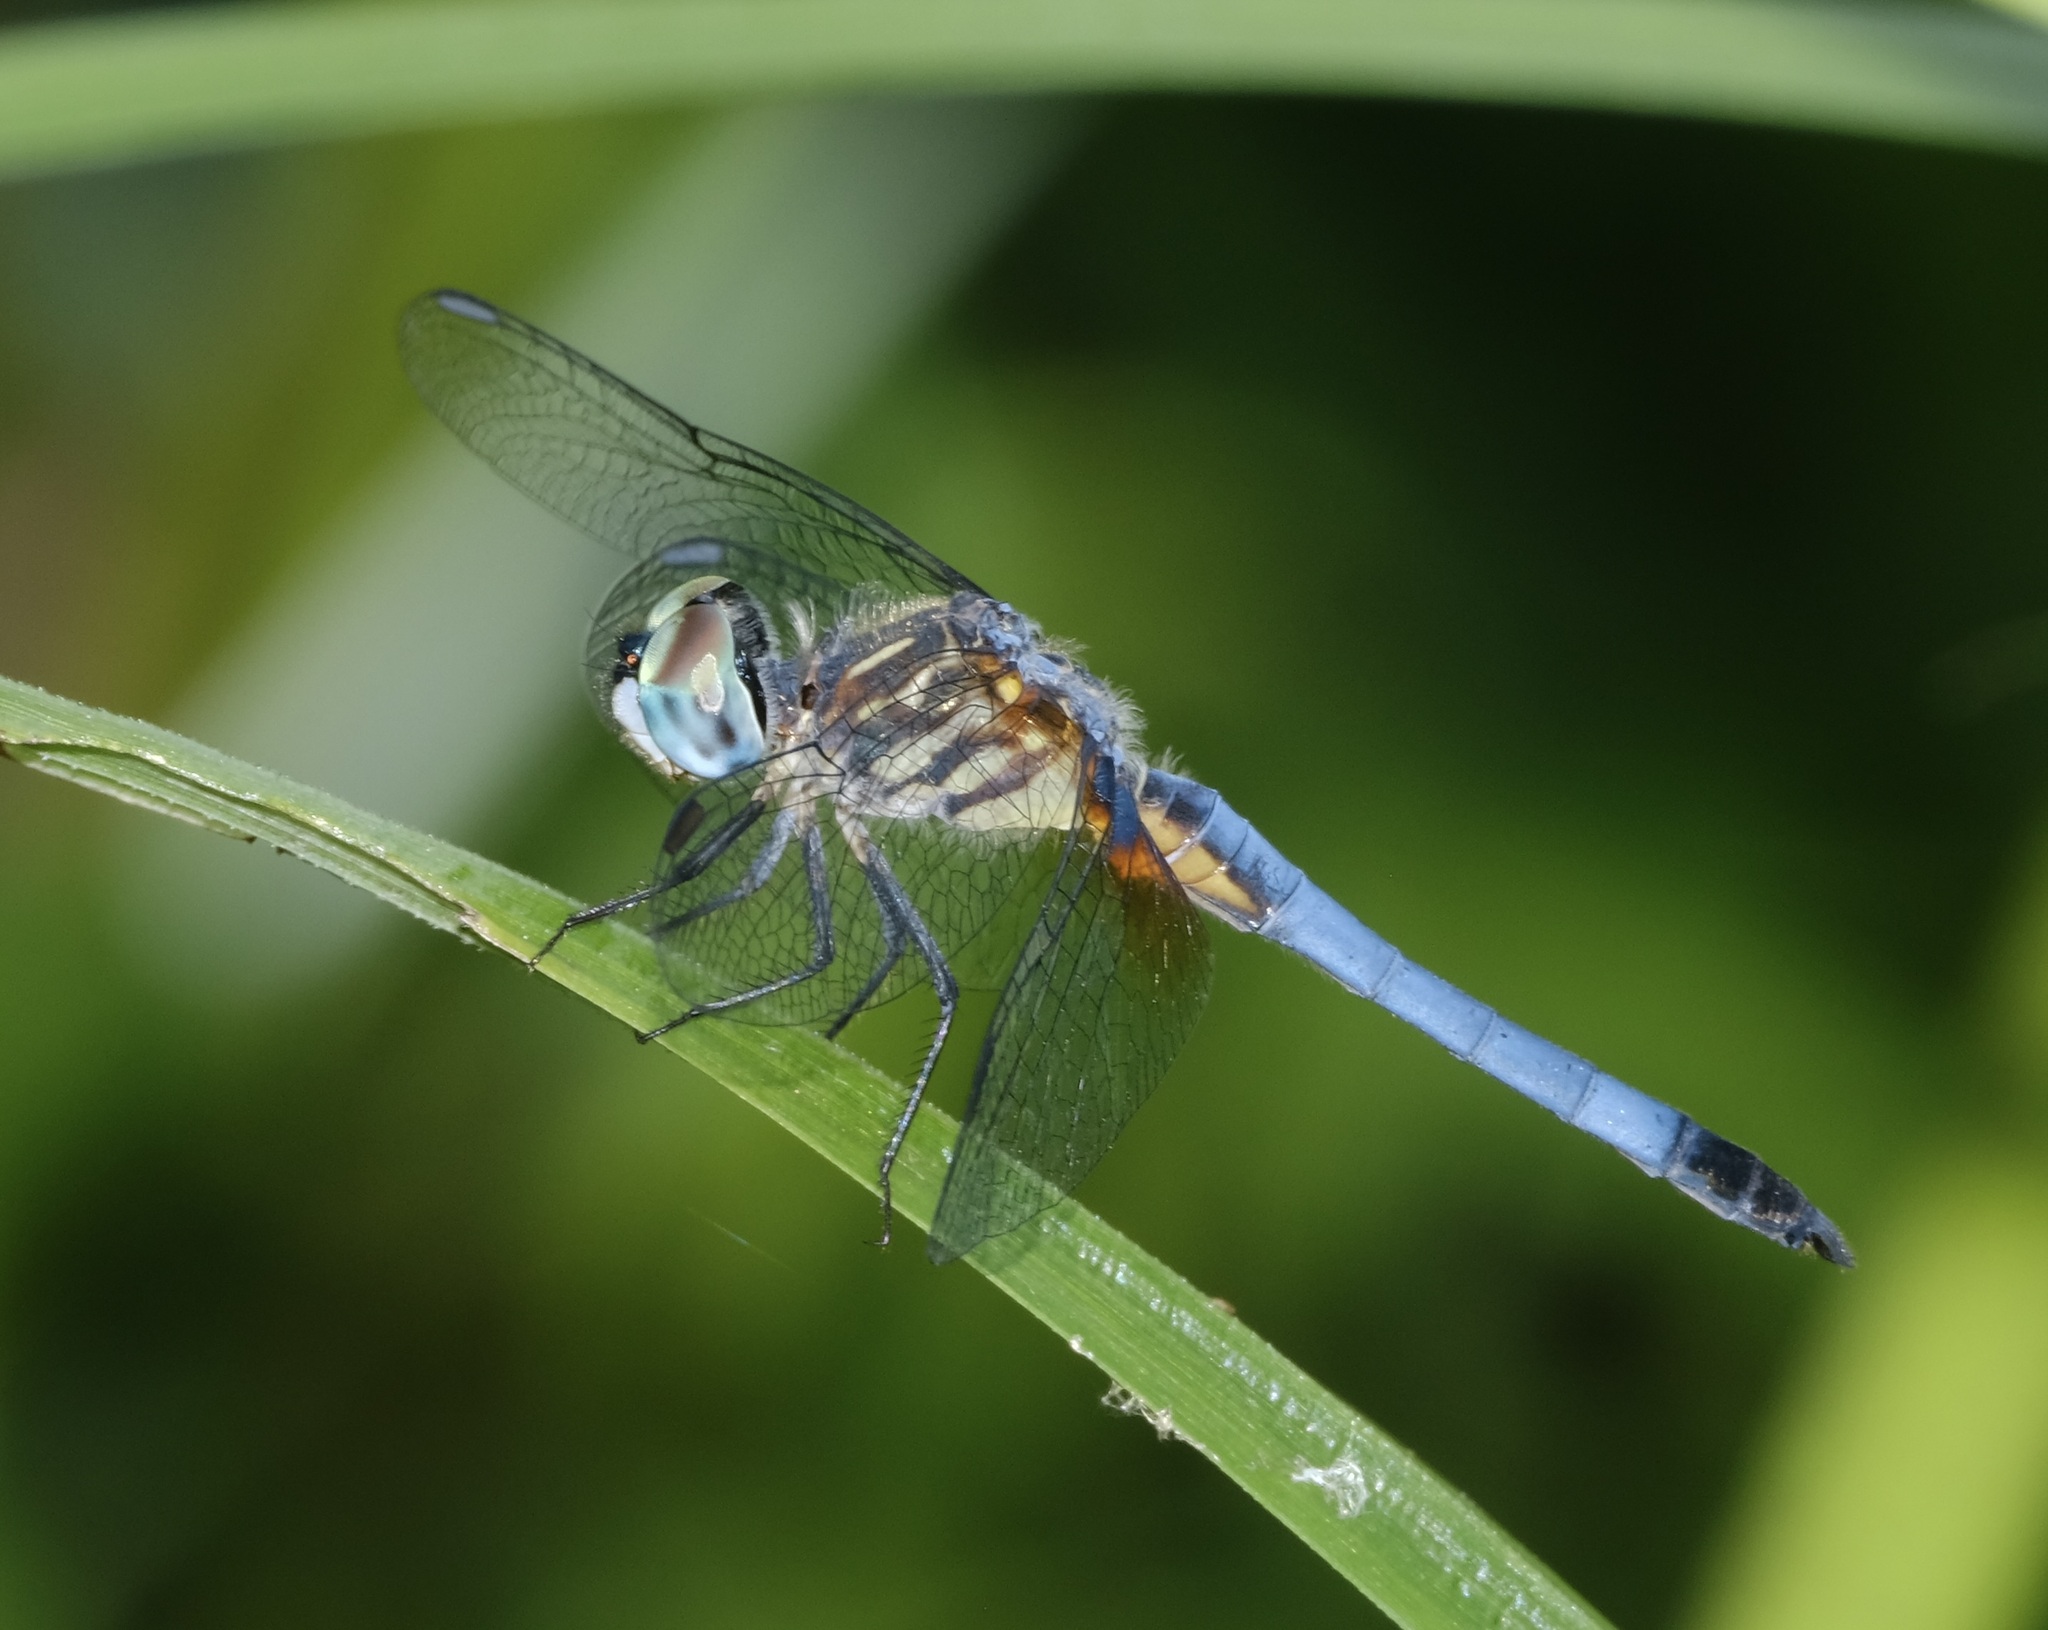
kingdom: Animalia
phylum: Arthropoda
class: Insecta
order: Odonata
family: Libellulidae
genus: Pachydiplax
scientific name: Pachydiplax longipennis
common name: Blue dasher
